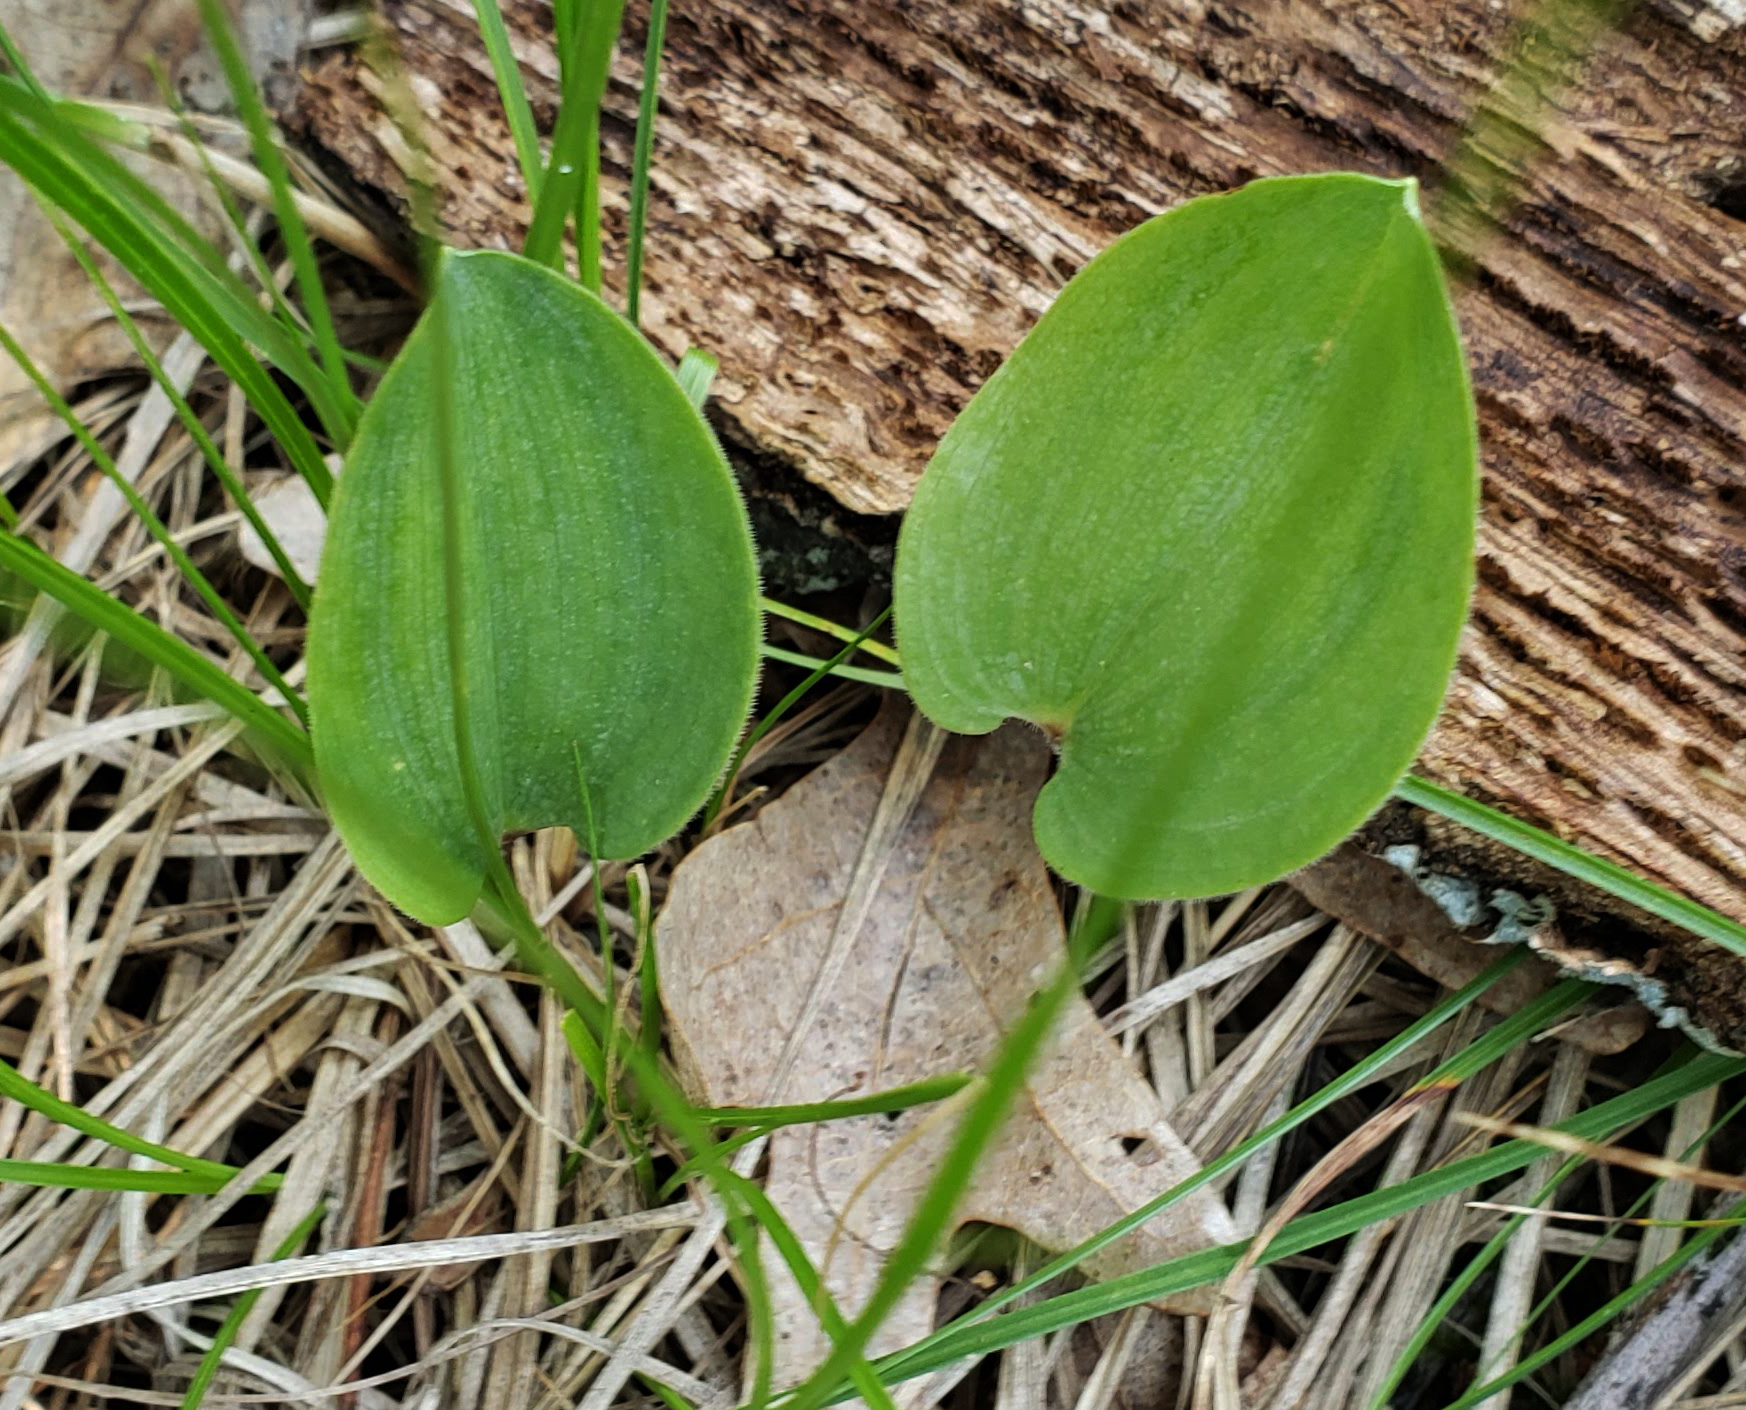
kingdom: Plantae
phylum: Tracheophyta
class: Liliopsida
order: Asparagales
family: Asparagaceae
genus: Maianthemum
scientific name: Maianthemum canadense
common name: False lily-of-the-valley
